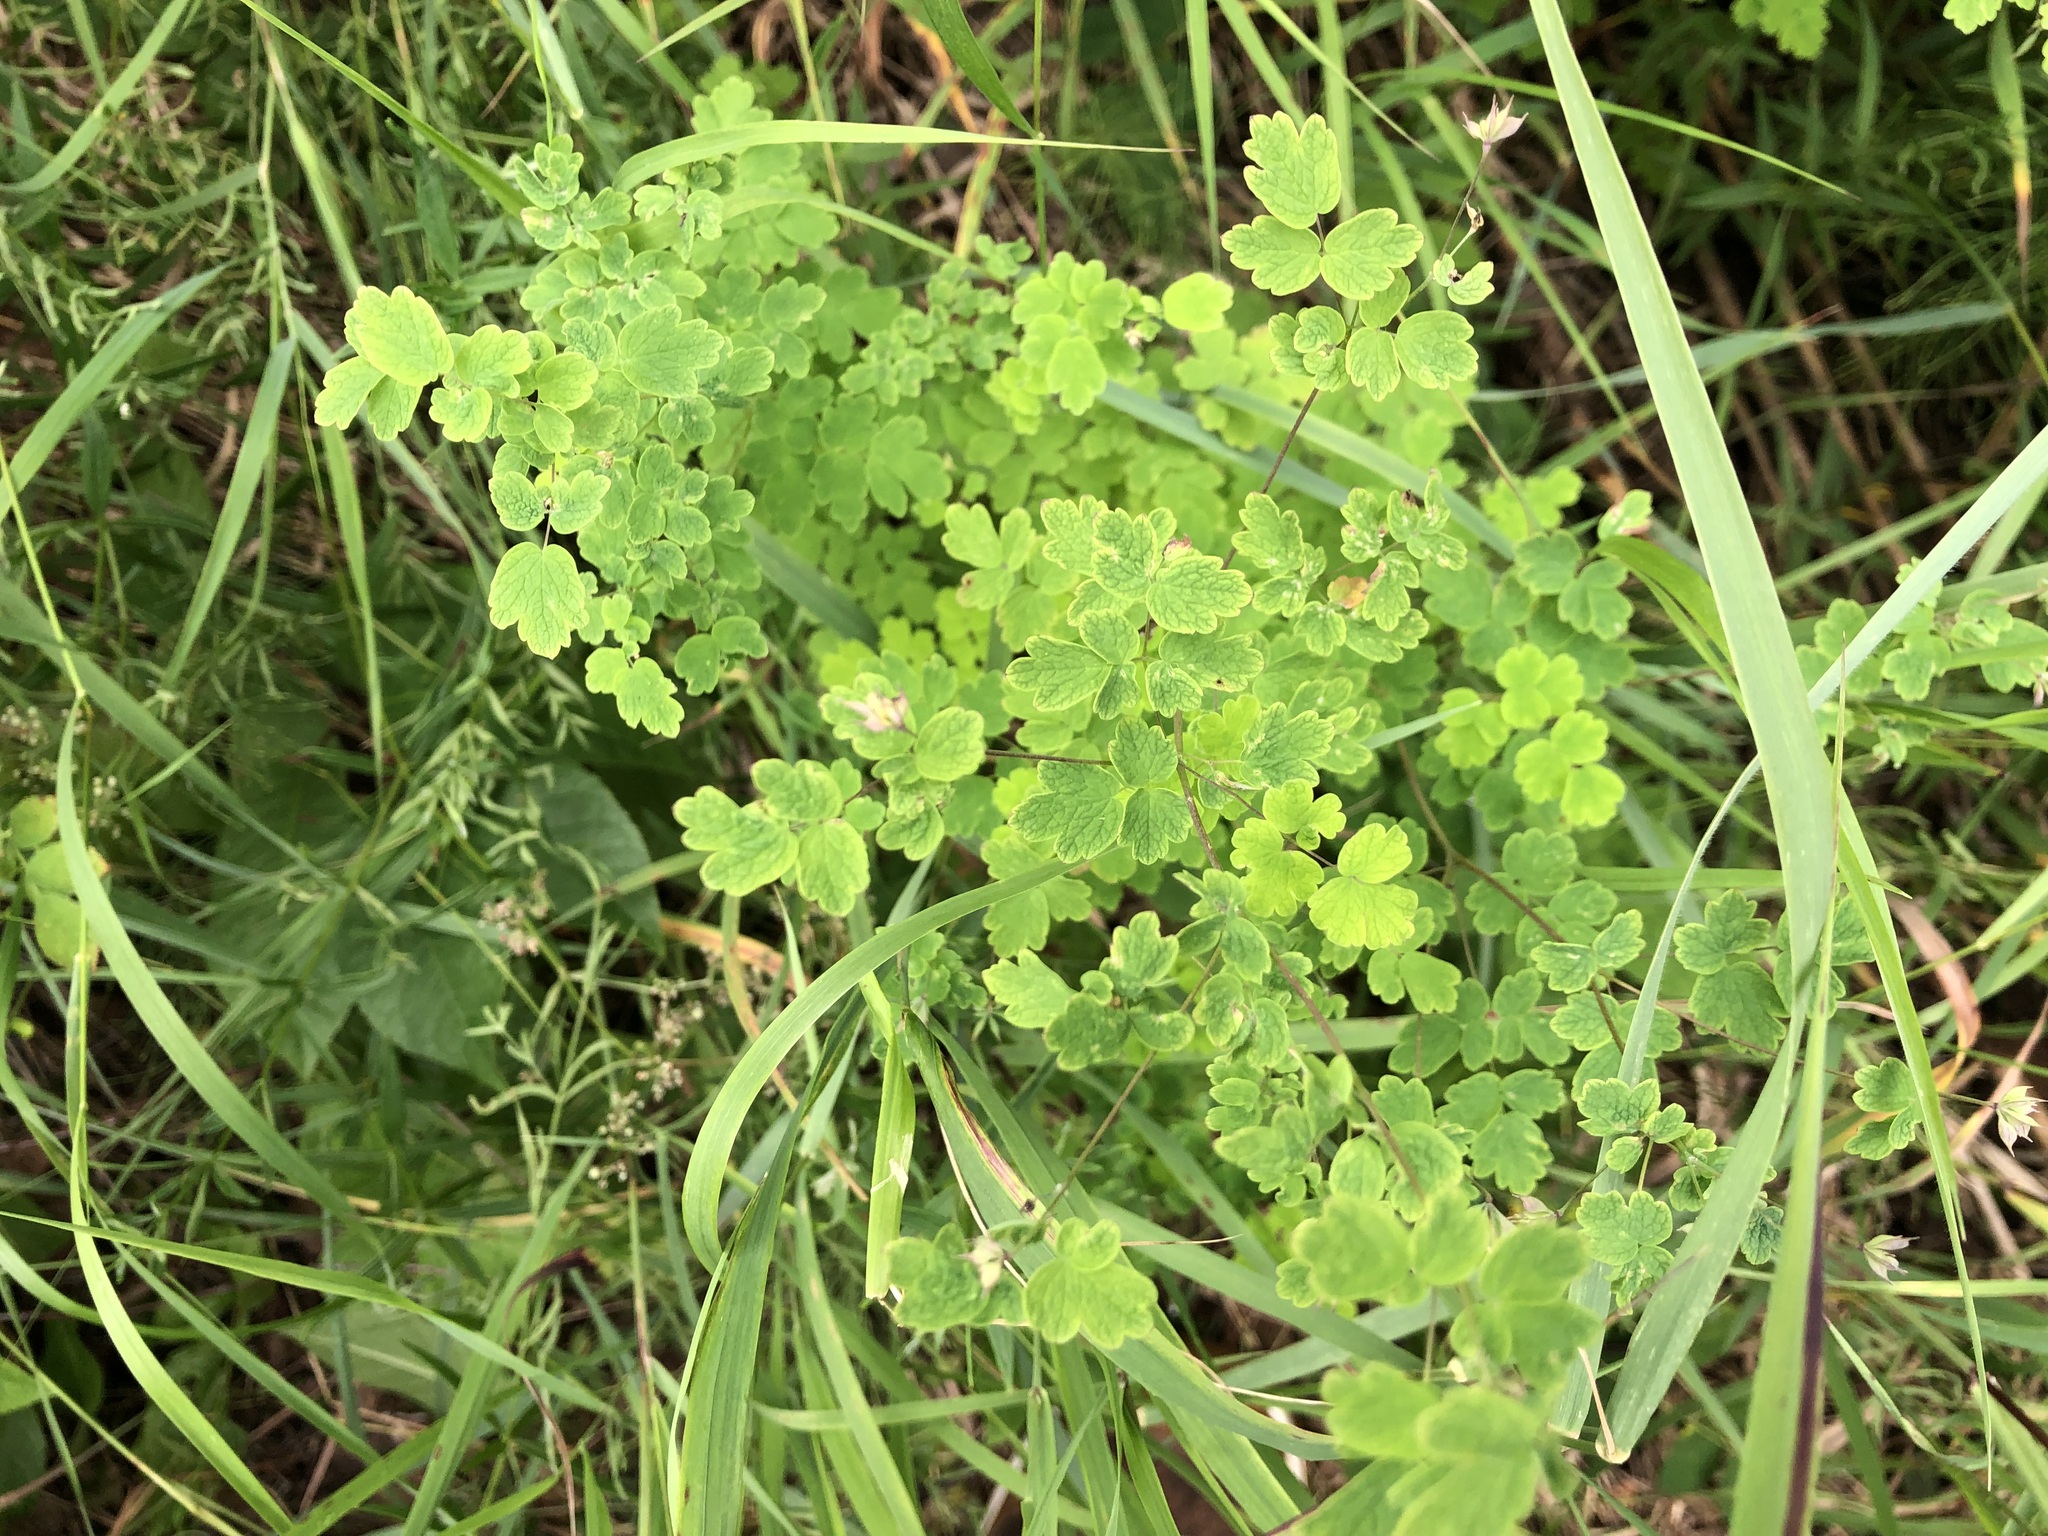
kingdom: Plantae
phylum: Tracheophyta
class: Magnoliopsida
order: Ranunculales
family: Ranunculaceae
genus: Thalictrum
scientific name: Thalictrum sparsiflorum
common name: Mountain meadow-rue
